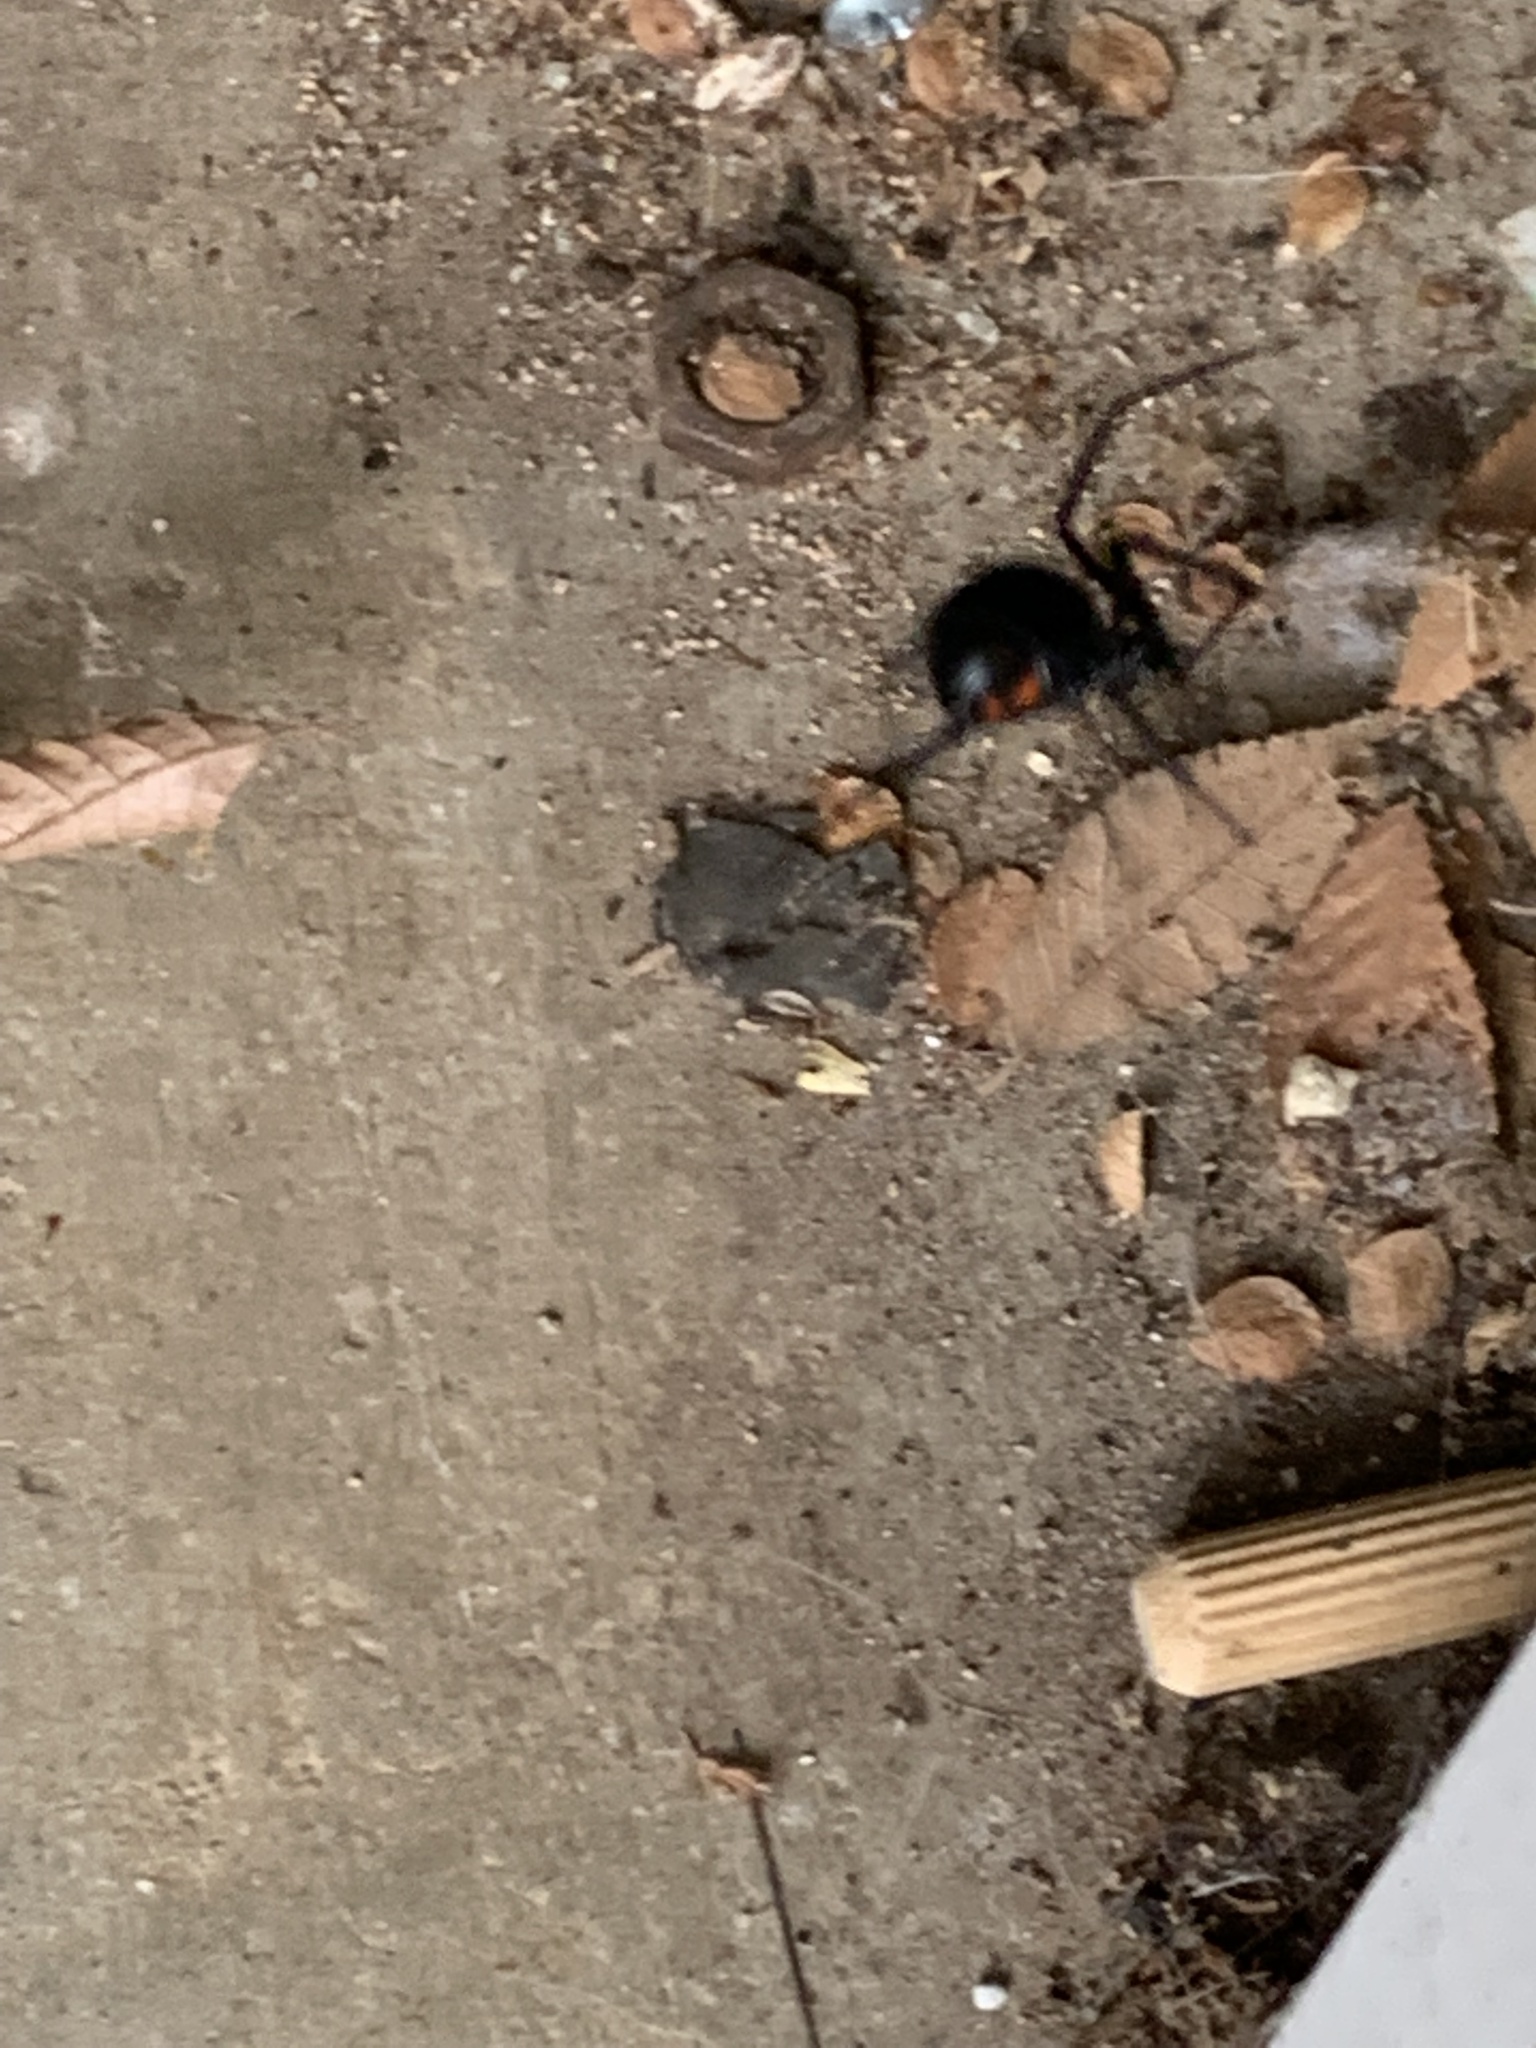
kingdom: Animalia
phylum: Arthropoda
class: Arachnida
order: Araneae
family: Theridiidae
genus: Latrodectus
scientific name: Latrodectus hesperus
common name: Western black widow
